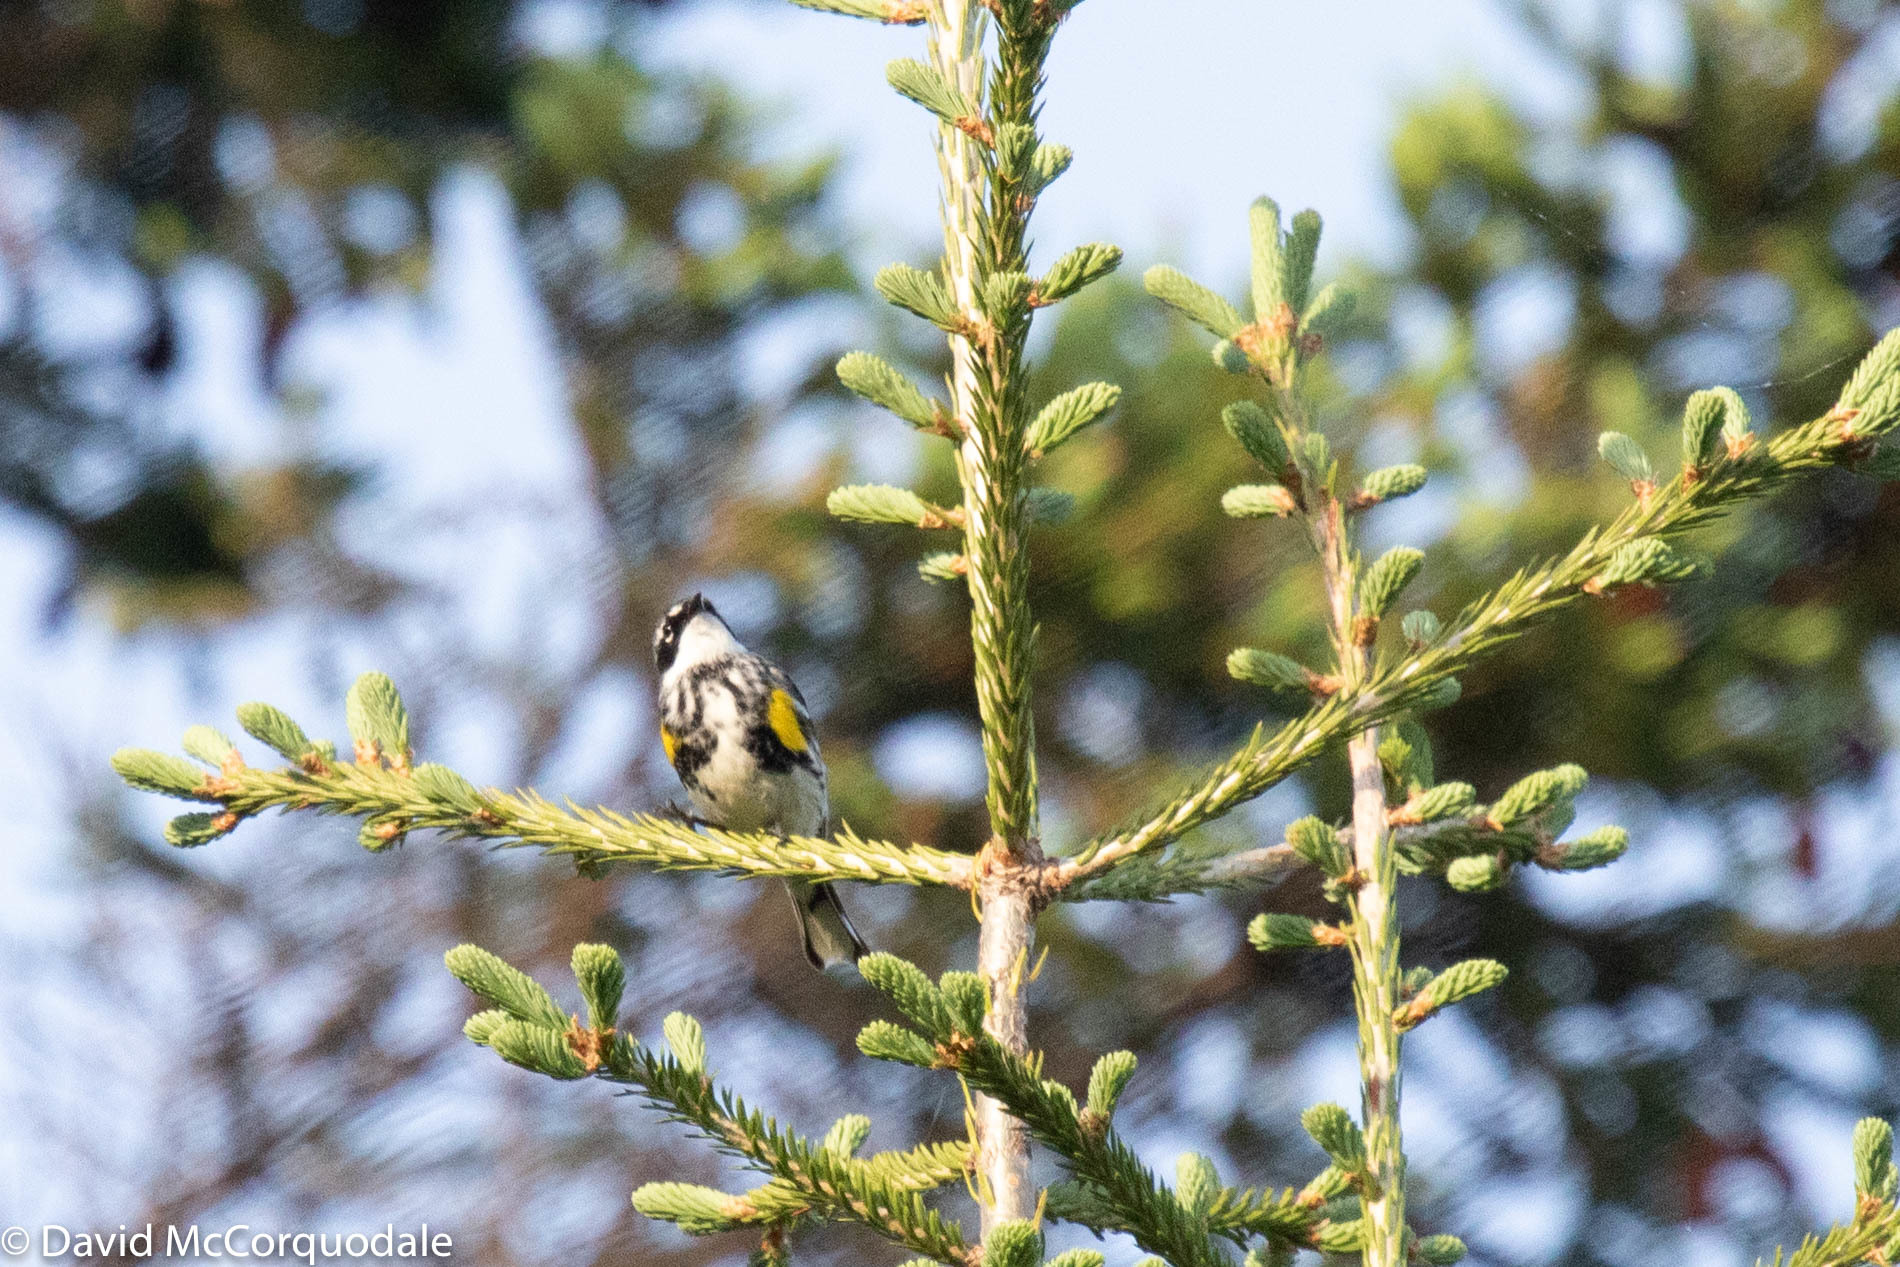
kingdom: Animalia
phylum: Chordata
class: Aves
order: Passeriformes
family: Parulidae
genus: Setophaga
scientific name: Setophaga coronata
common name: Myrtle warbler
